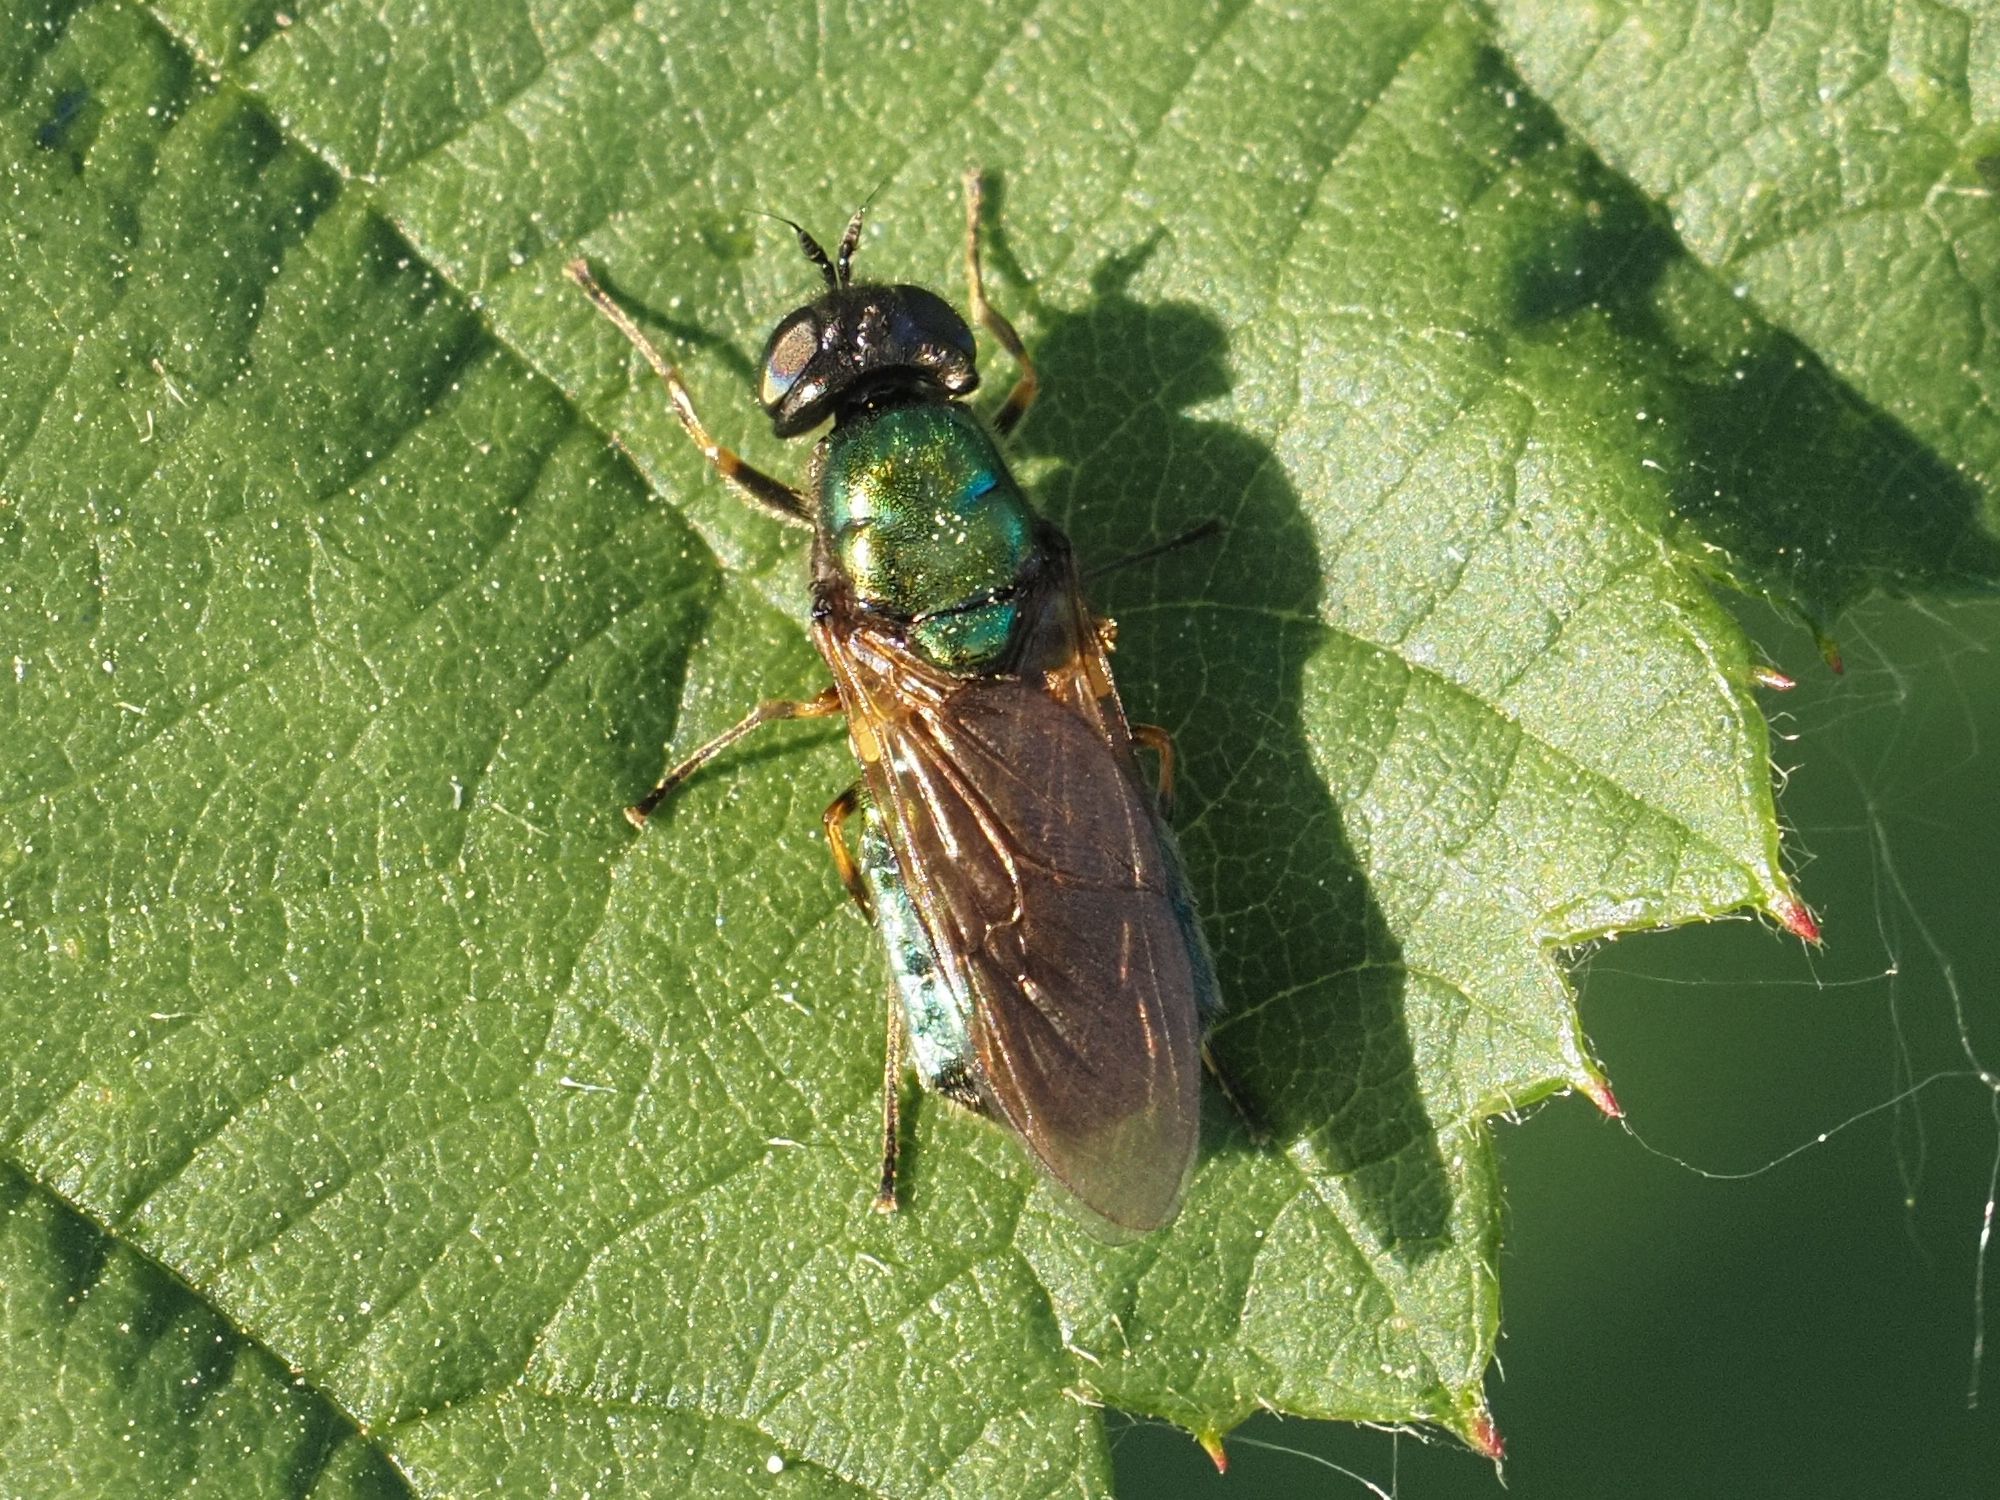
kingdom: Animalia
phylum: Arthropoda
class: Insecta
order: Diptera
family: Stratiomyidae
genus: Chloromyia
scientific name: Chloromyia formosa
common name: Soldier fly
